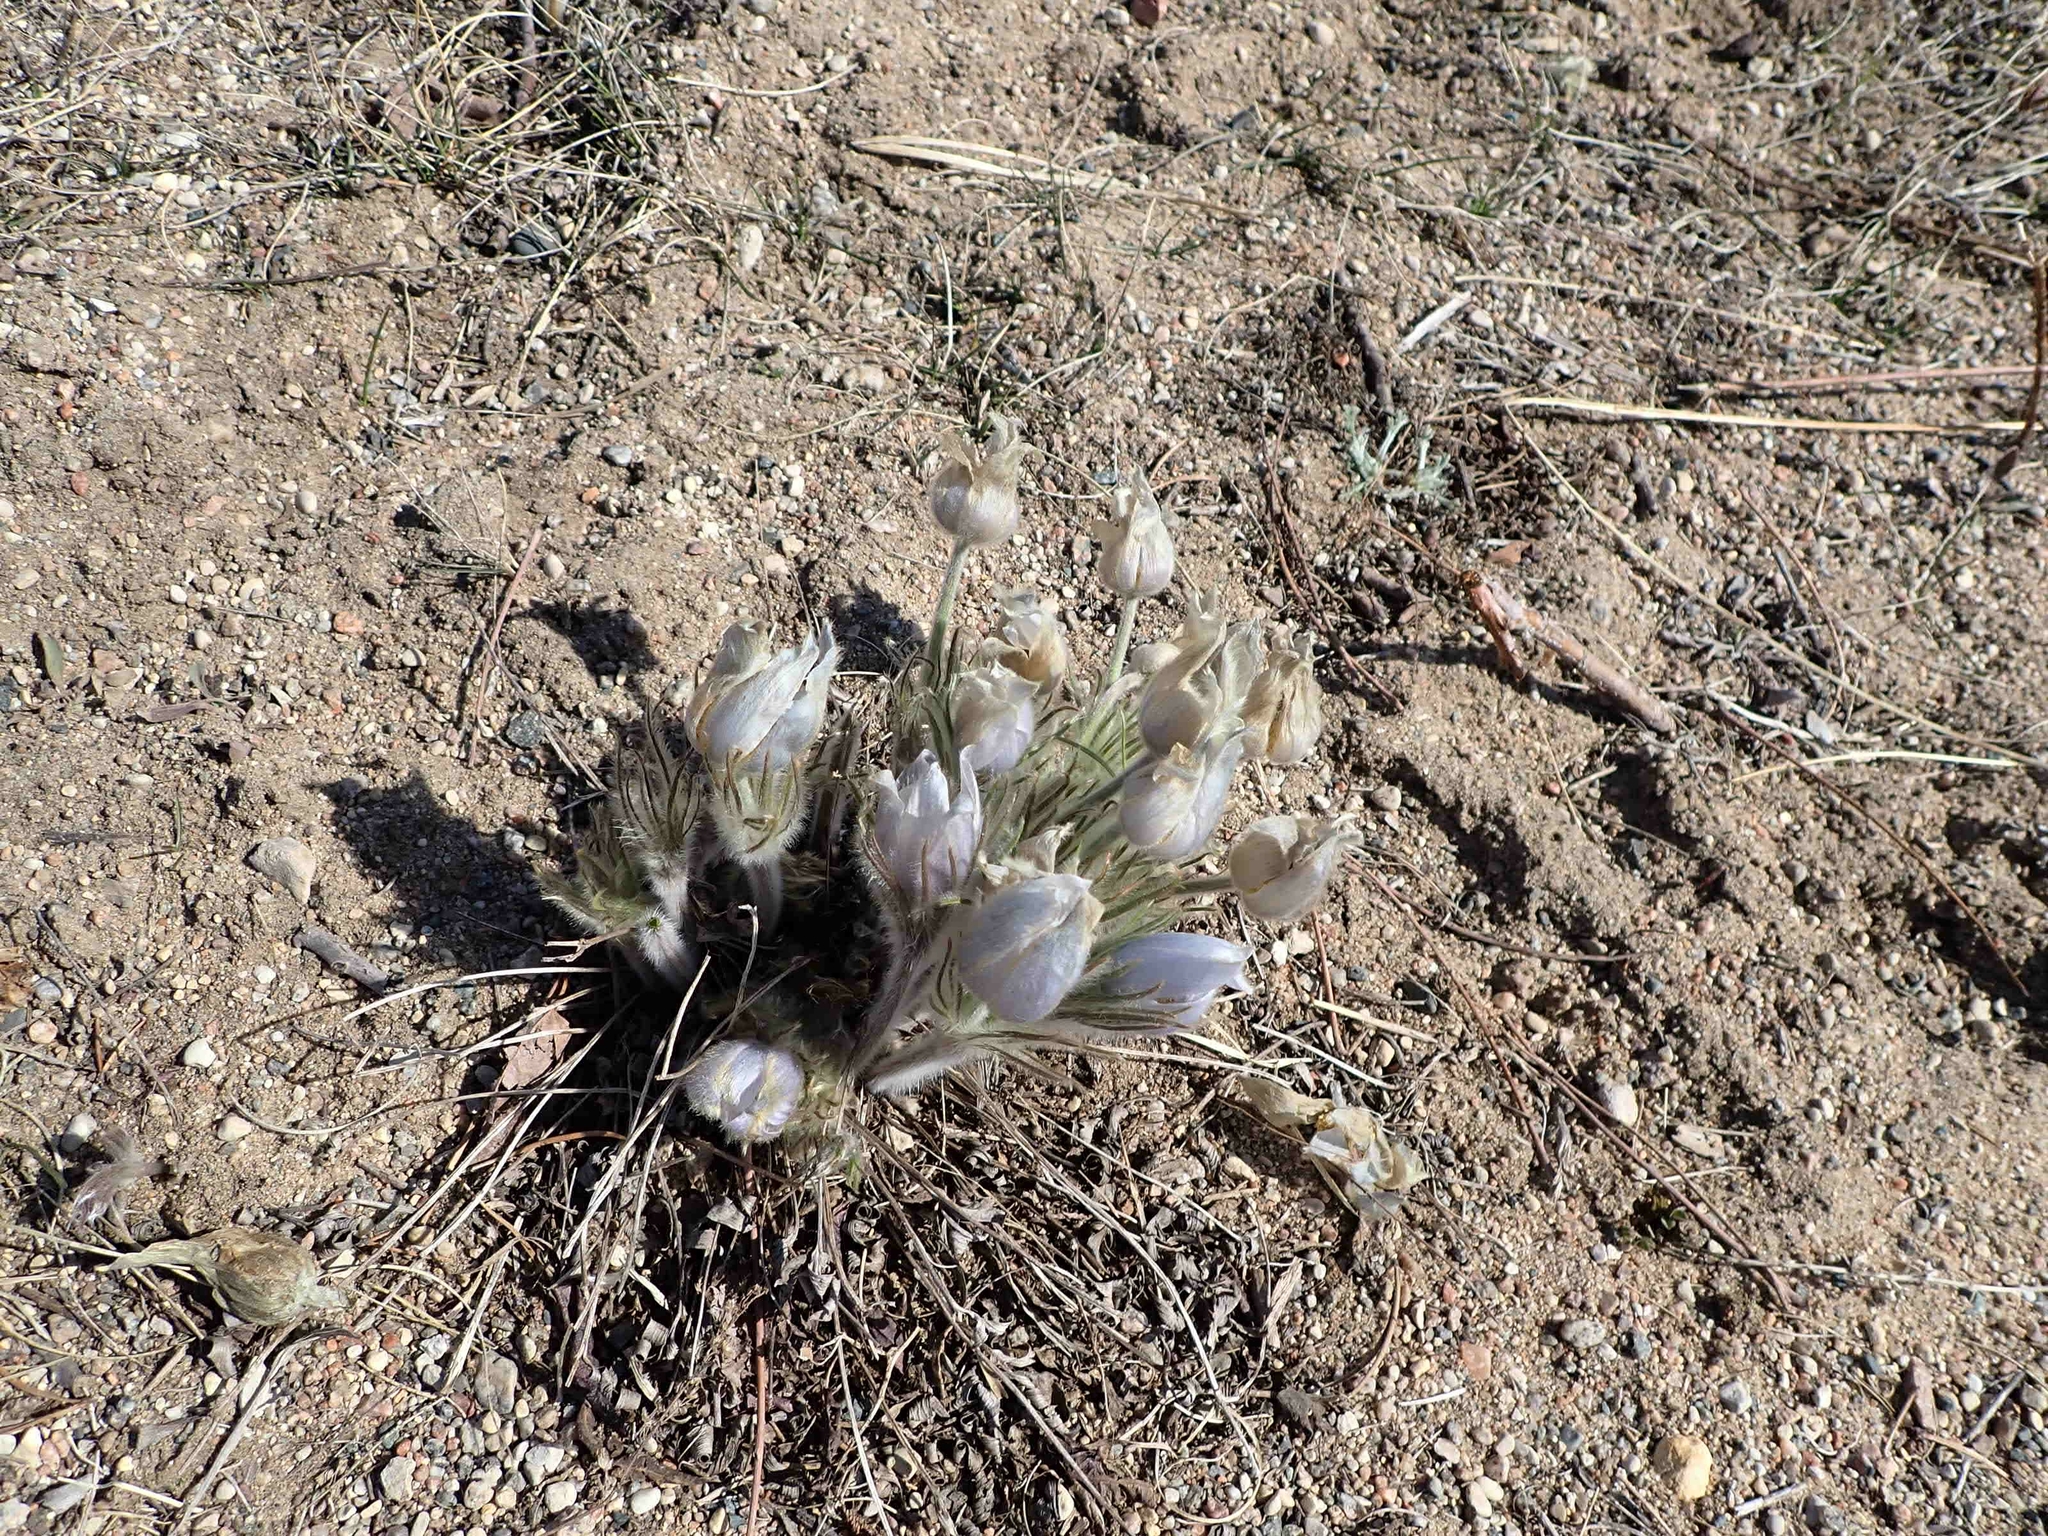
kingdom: Plantae
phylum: Tracheophyta
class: Magnoliopsida
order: Ranunculales
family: Ranunculaceae
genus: Pulsatilla
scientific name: Pulsatilla nuttalliana
